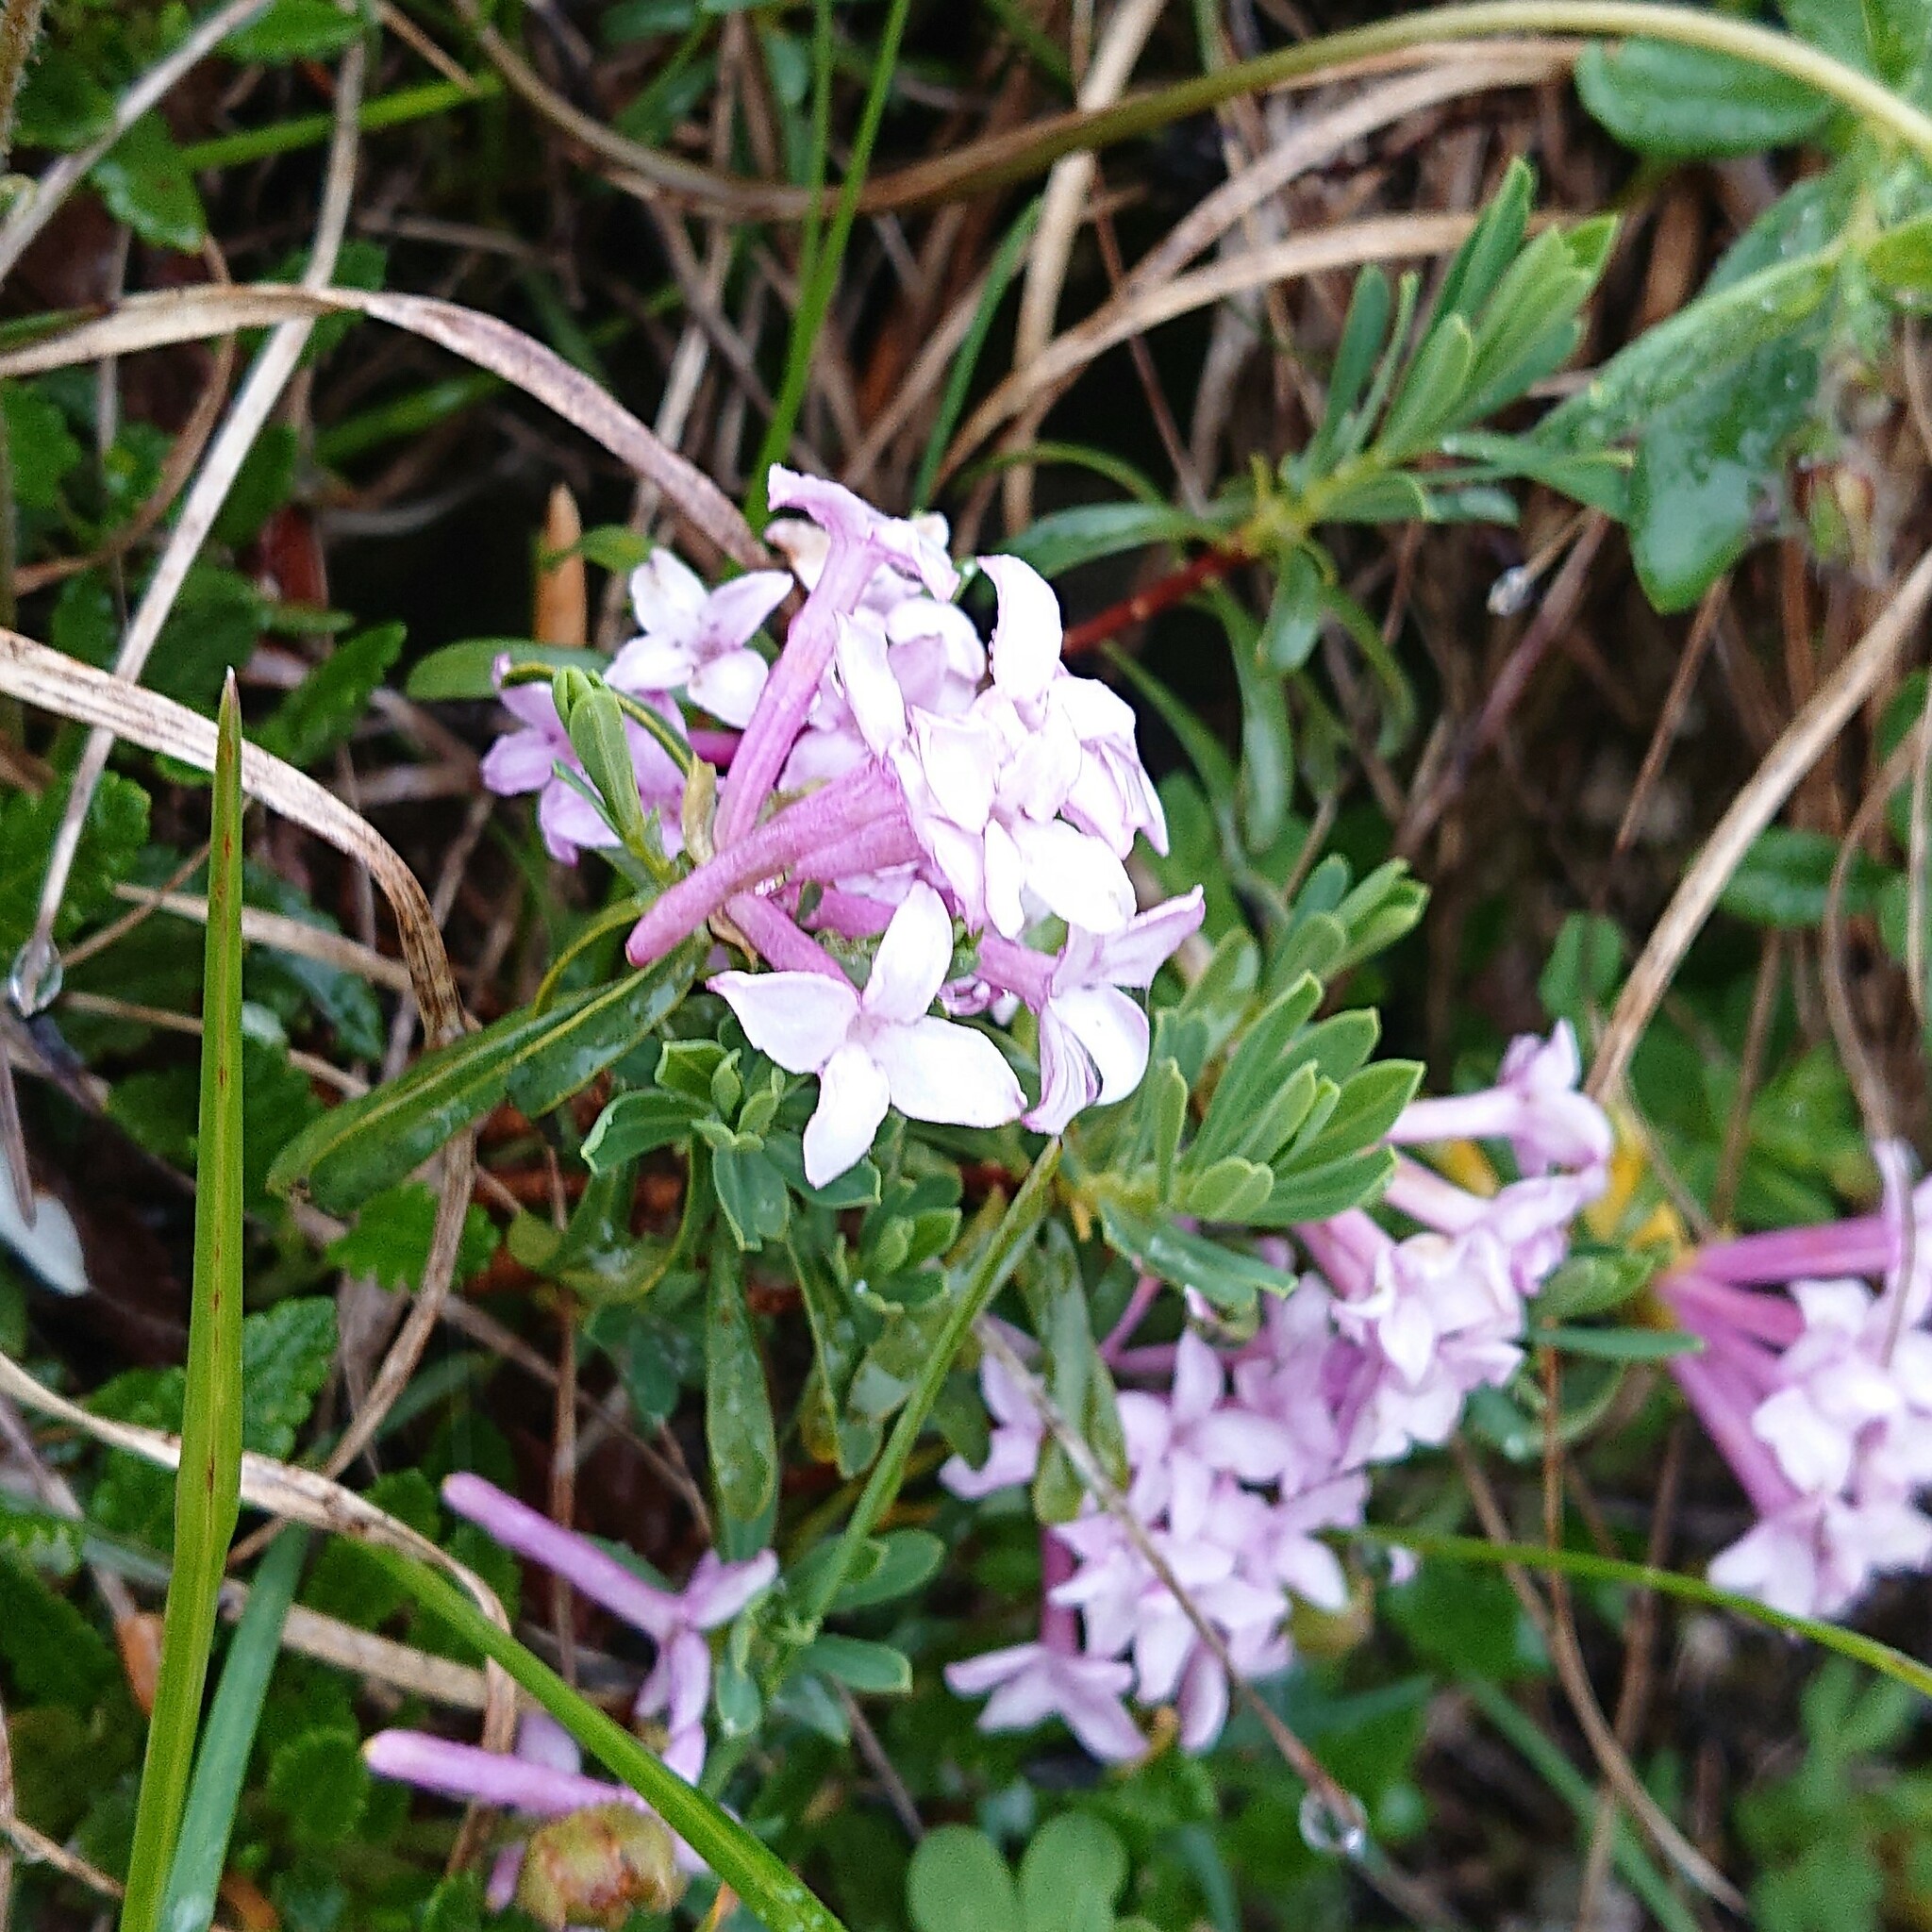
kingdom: Plantae
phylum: Tracheophyta
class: Magnoliopsida
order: Malvales
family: Thymelaeaceae
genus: Daphne
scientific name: Daphne striata
